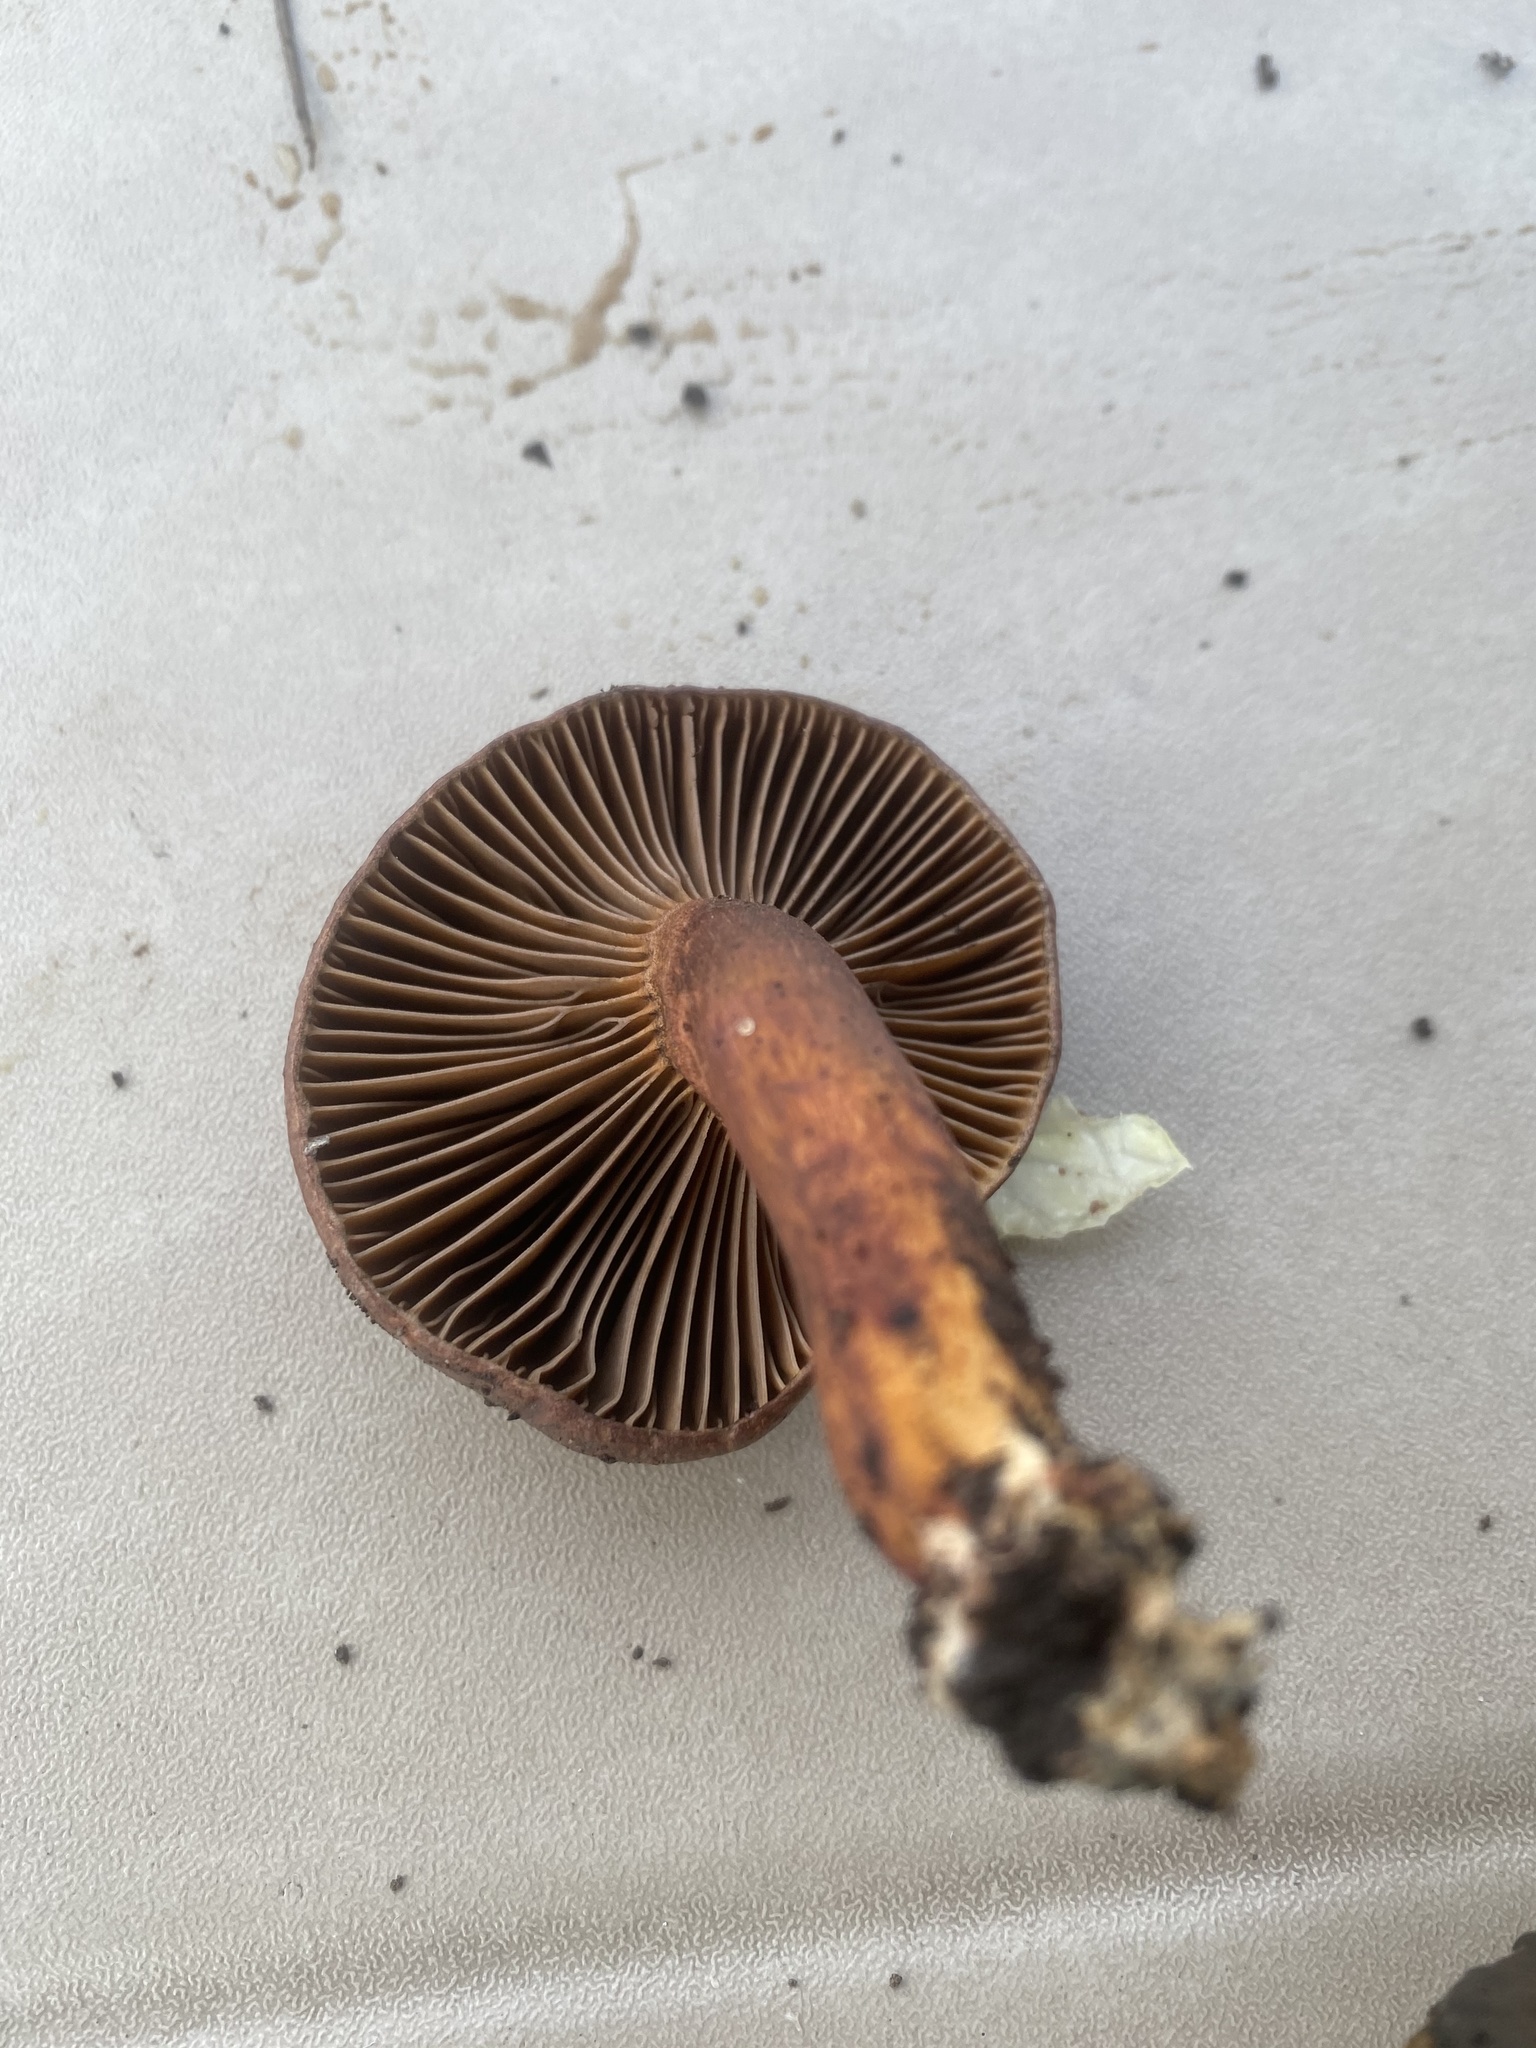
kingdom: Fungi
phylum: Basidiomycota
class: Agaricomycetes
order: Boletales
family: Gomphidiaceae
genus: Chroogomphus
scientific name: Chroogomphus vinicolor
